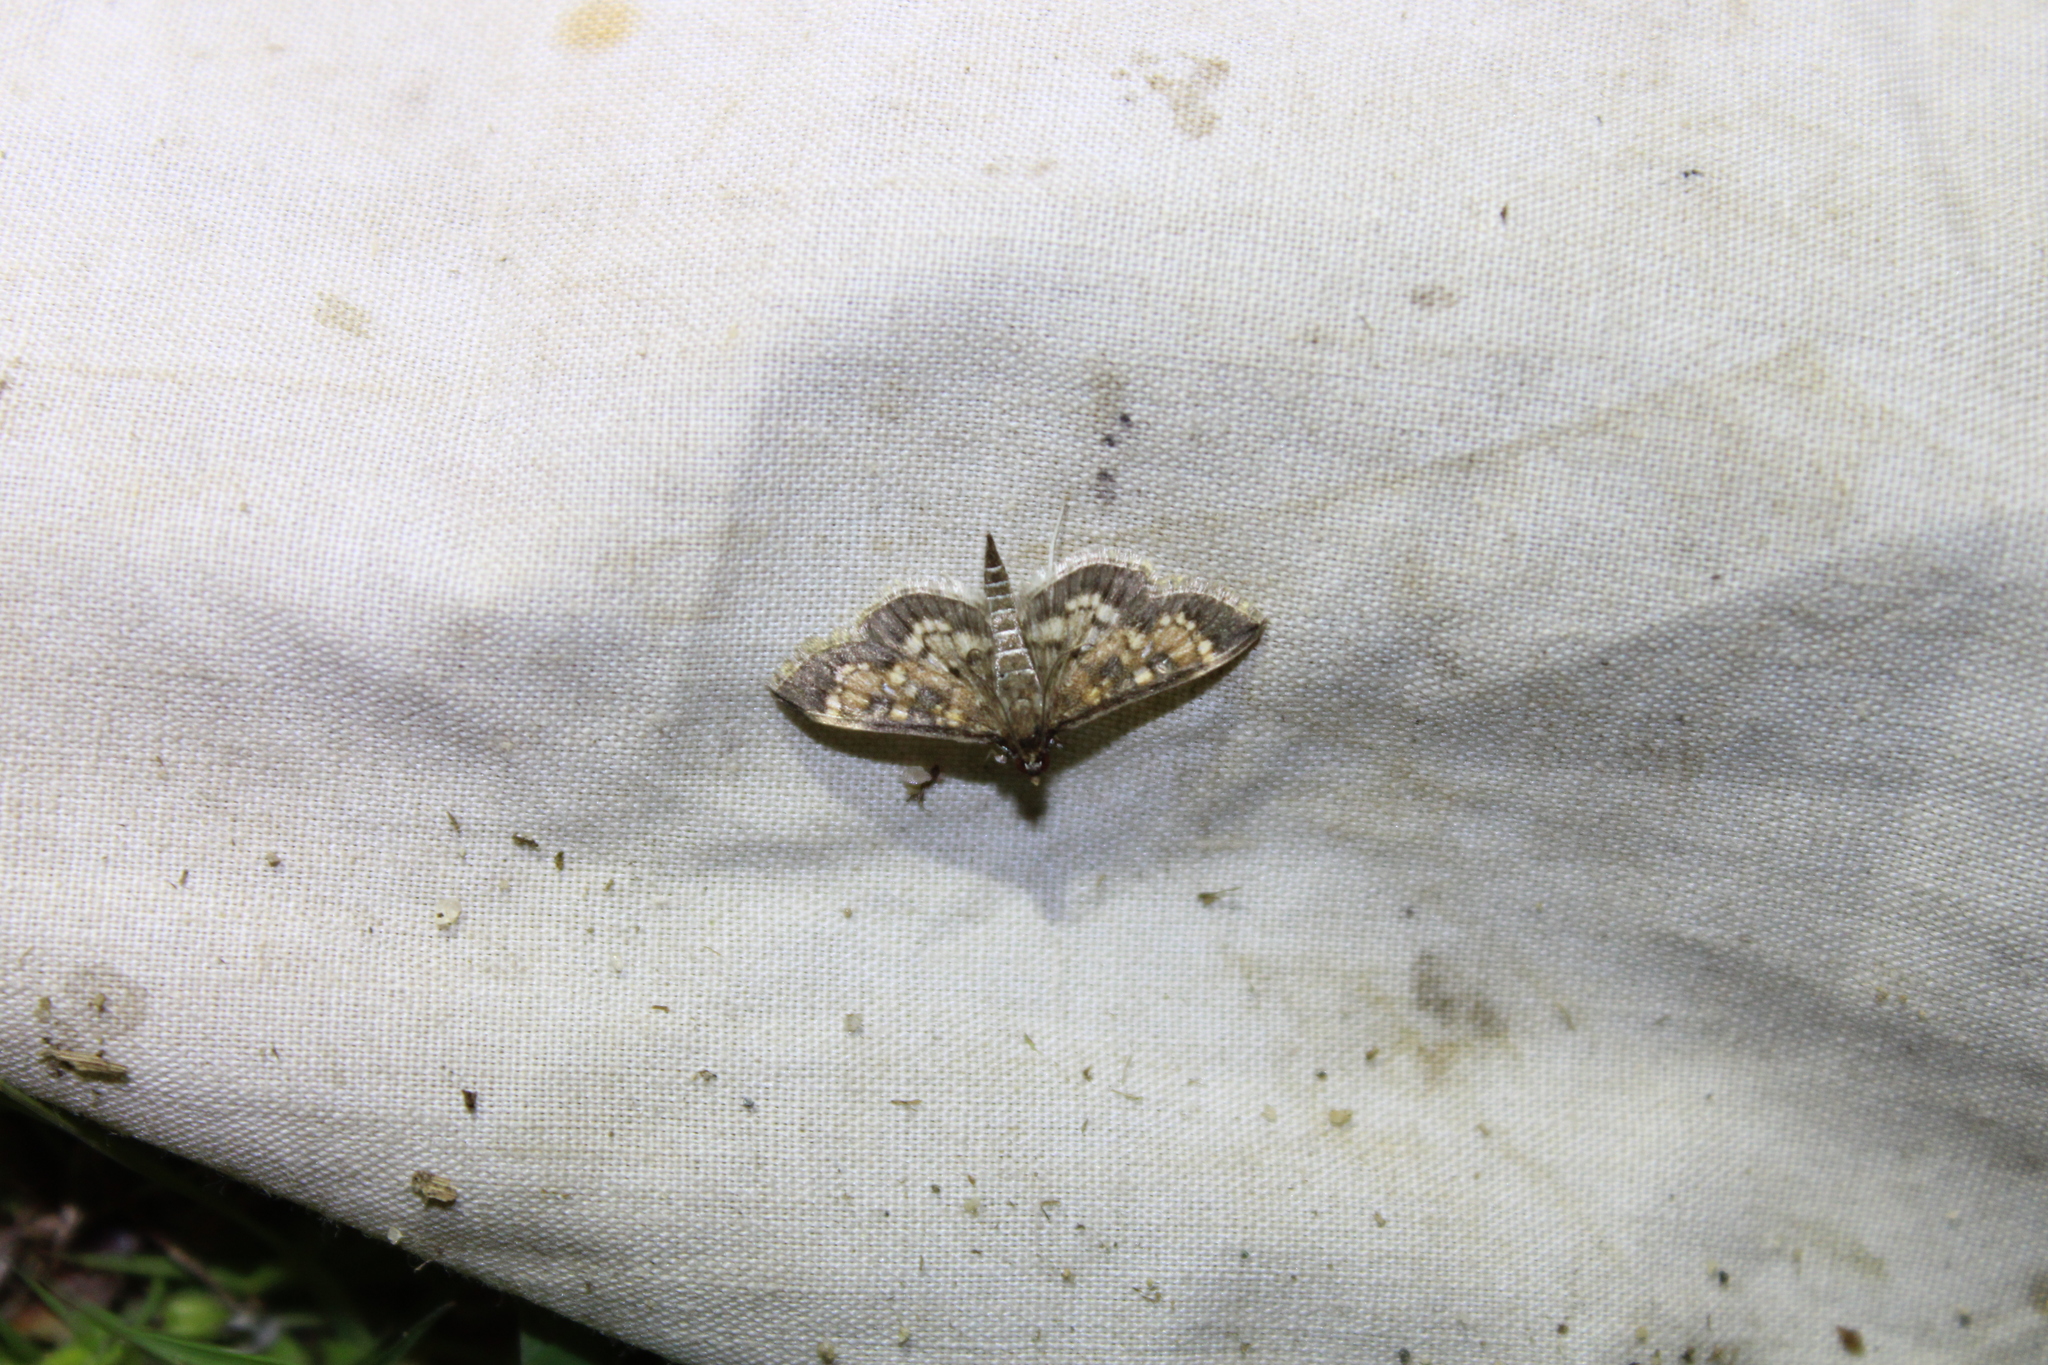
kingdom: Animalia
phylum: Arthropoda
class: Insecta
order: Lepidoptera
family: Crambidae
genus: Epipagis
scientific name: Epipagis adipaloides
